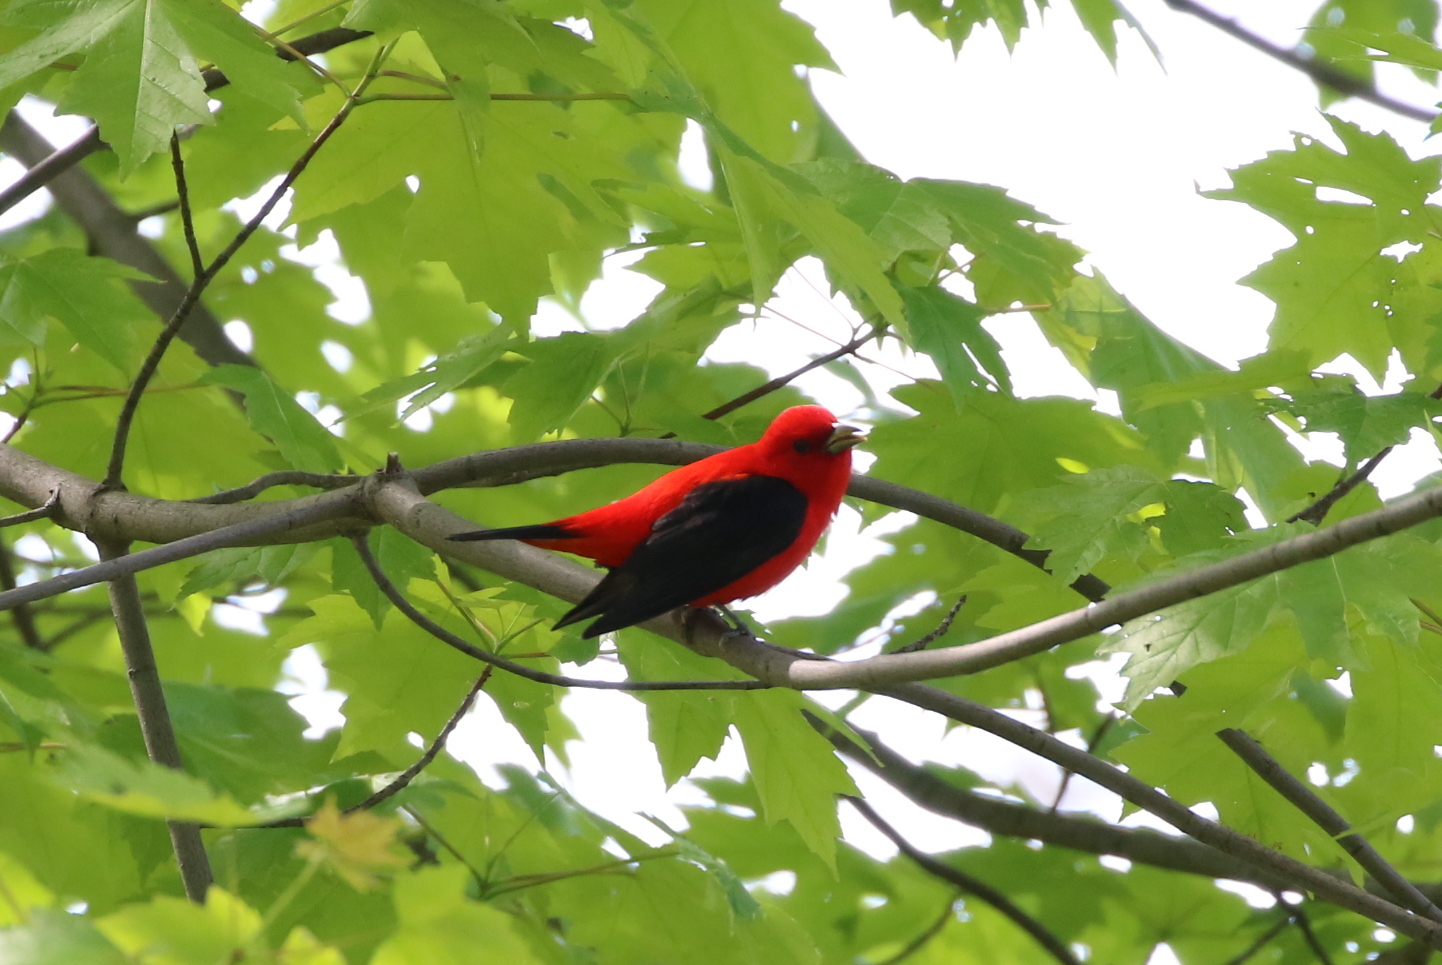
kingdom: Animalia
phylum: Chordata
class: Aves
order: Passeriformes
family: Cardinalidae
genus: Piranga
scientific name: Piranga olivacea
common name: Scarlet tanager
